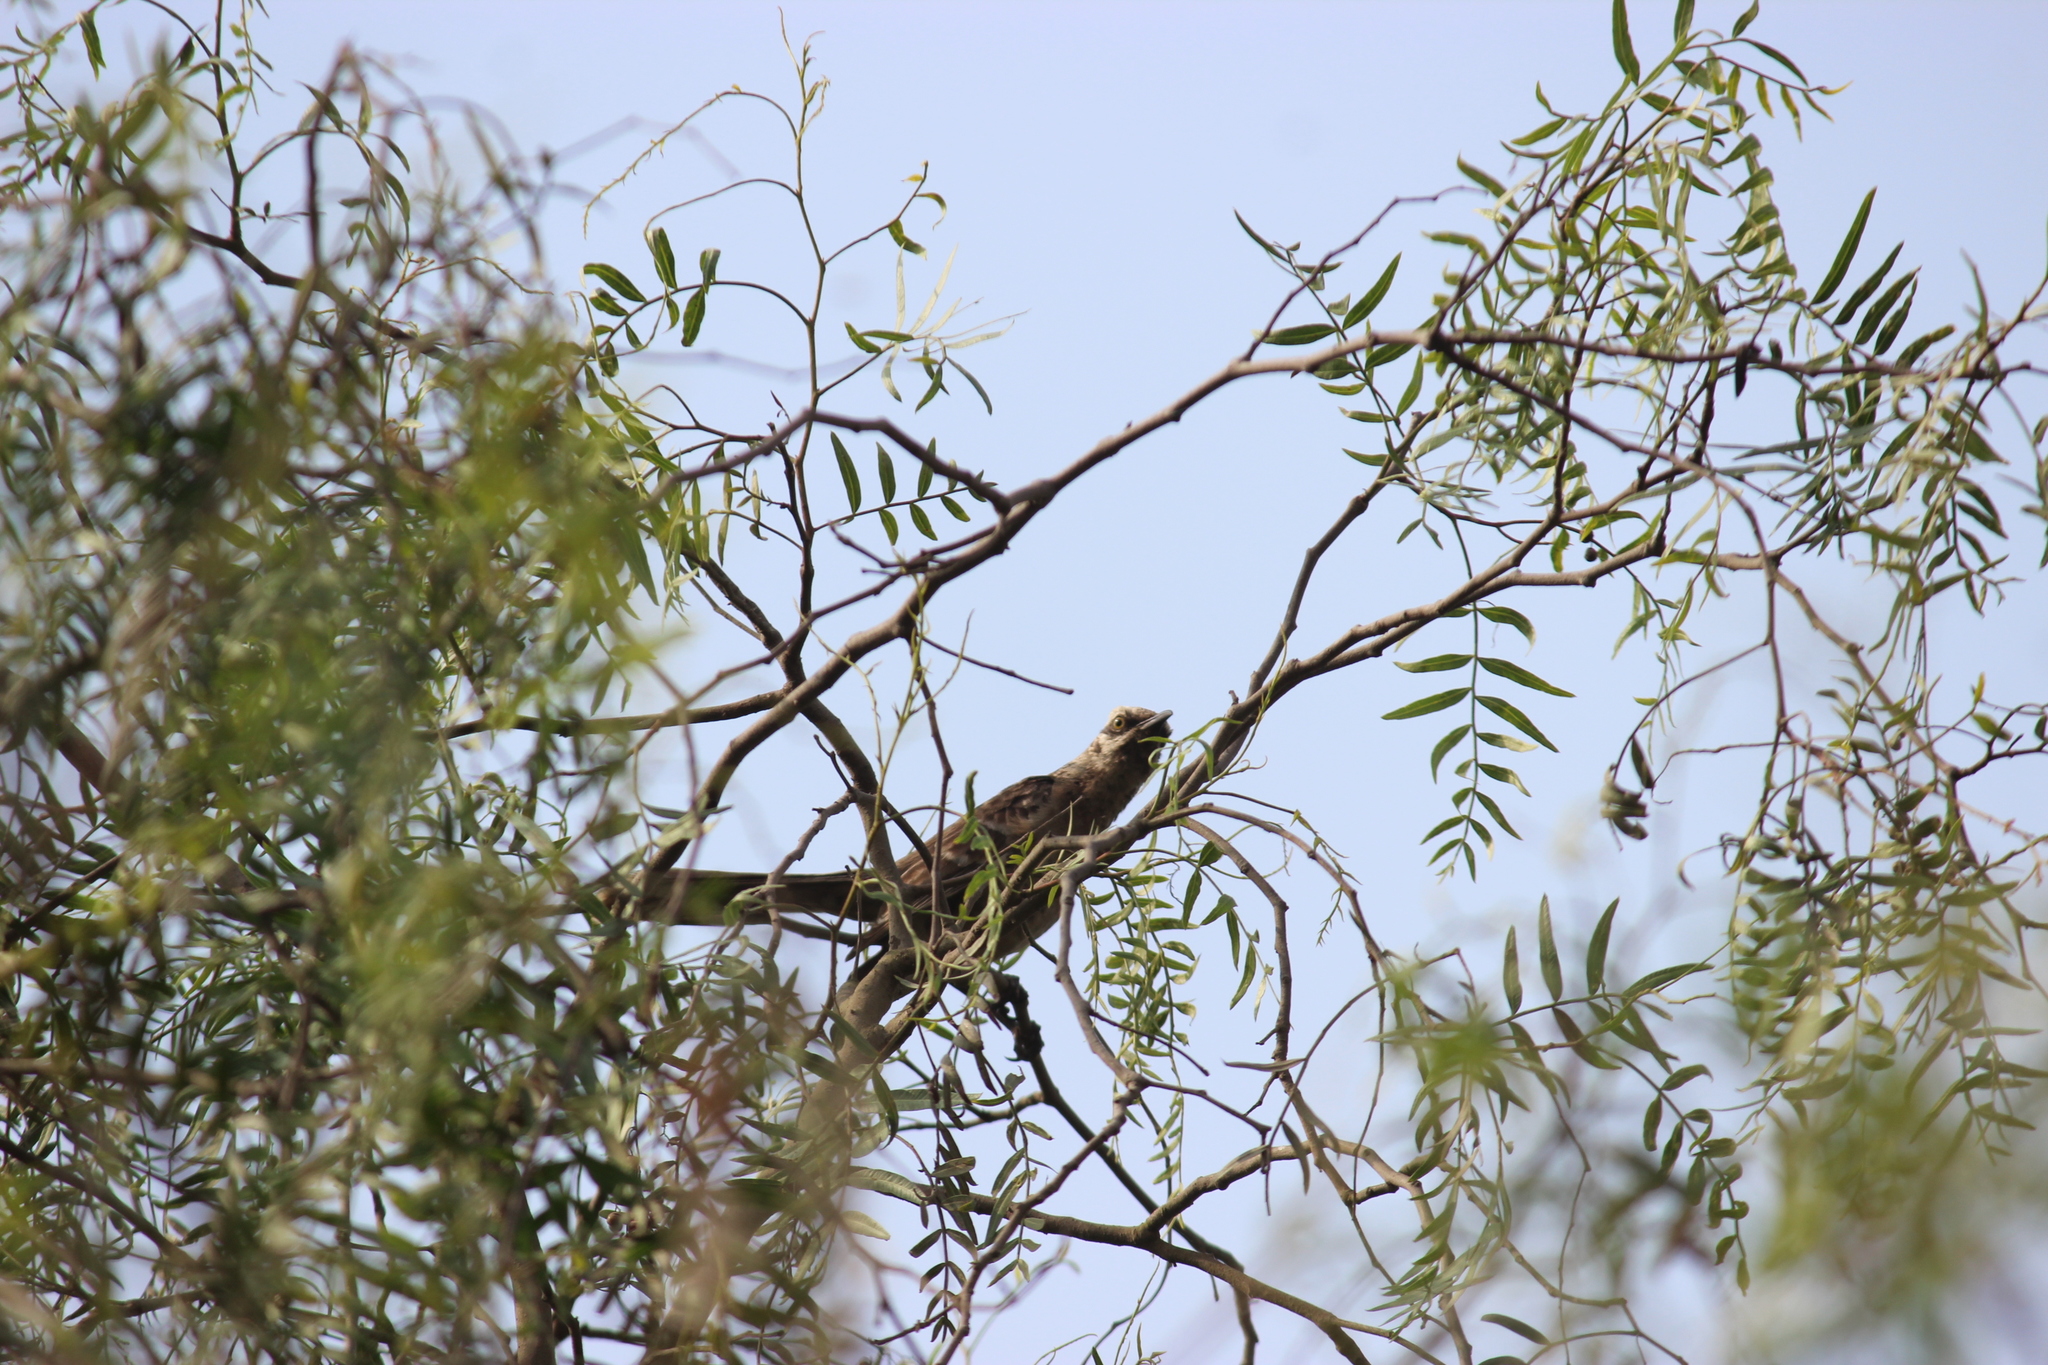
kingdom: Animalia
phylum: Chordata
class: Aves
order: Passeriformes
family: Mimidae
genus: Mimus
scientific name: Mimus longicaudatus
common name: Long-tailed mockingbird
